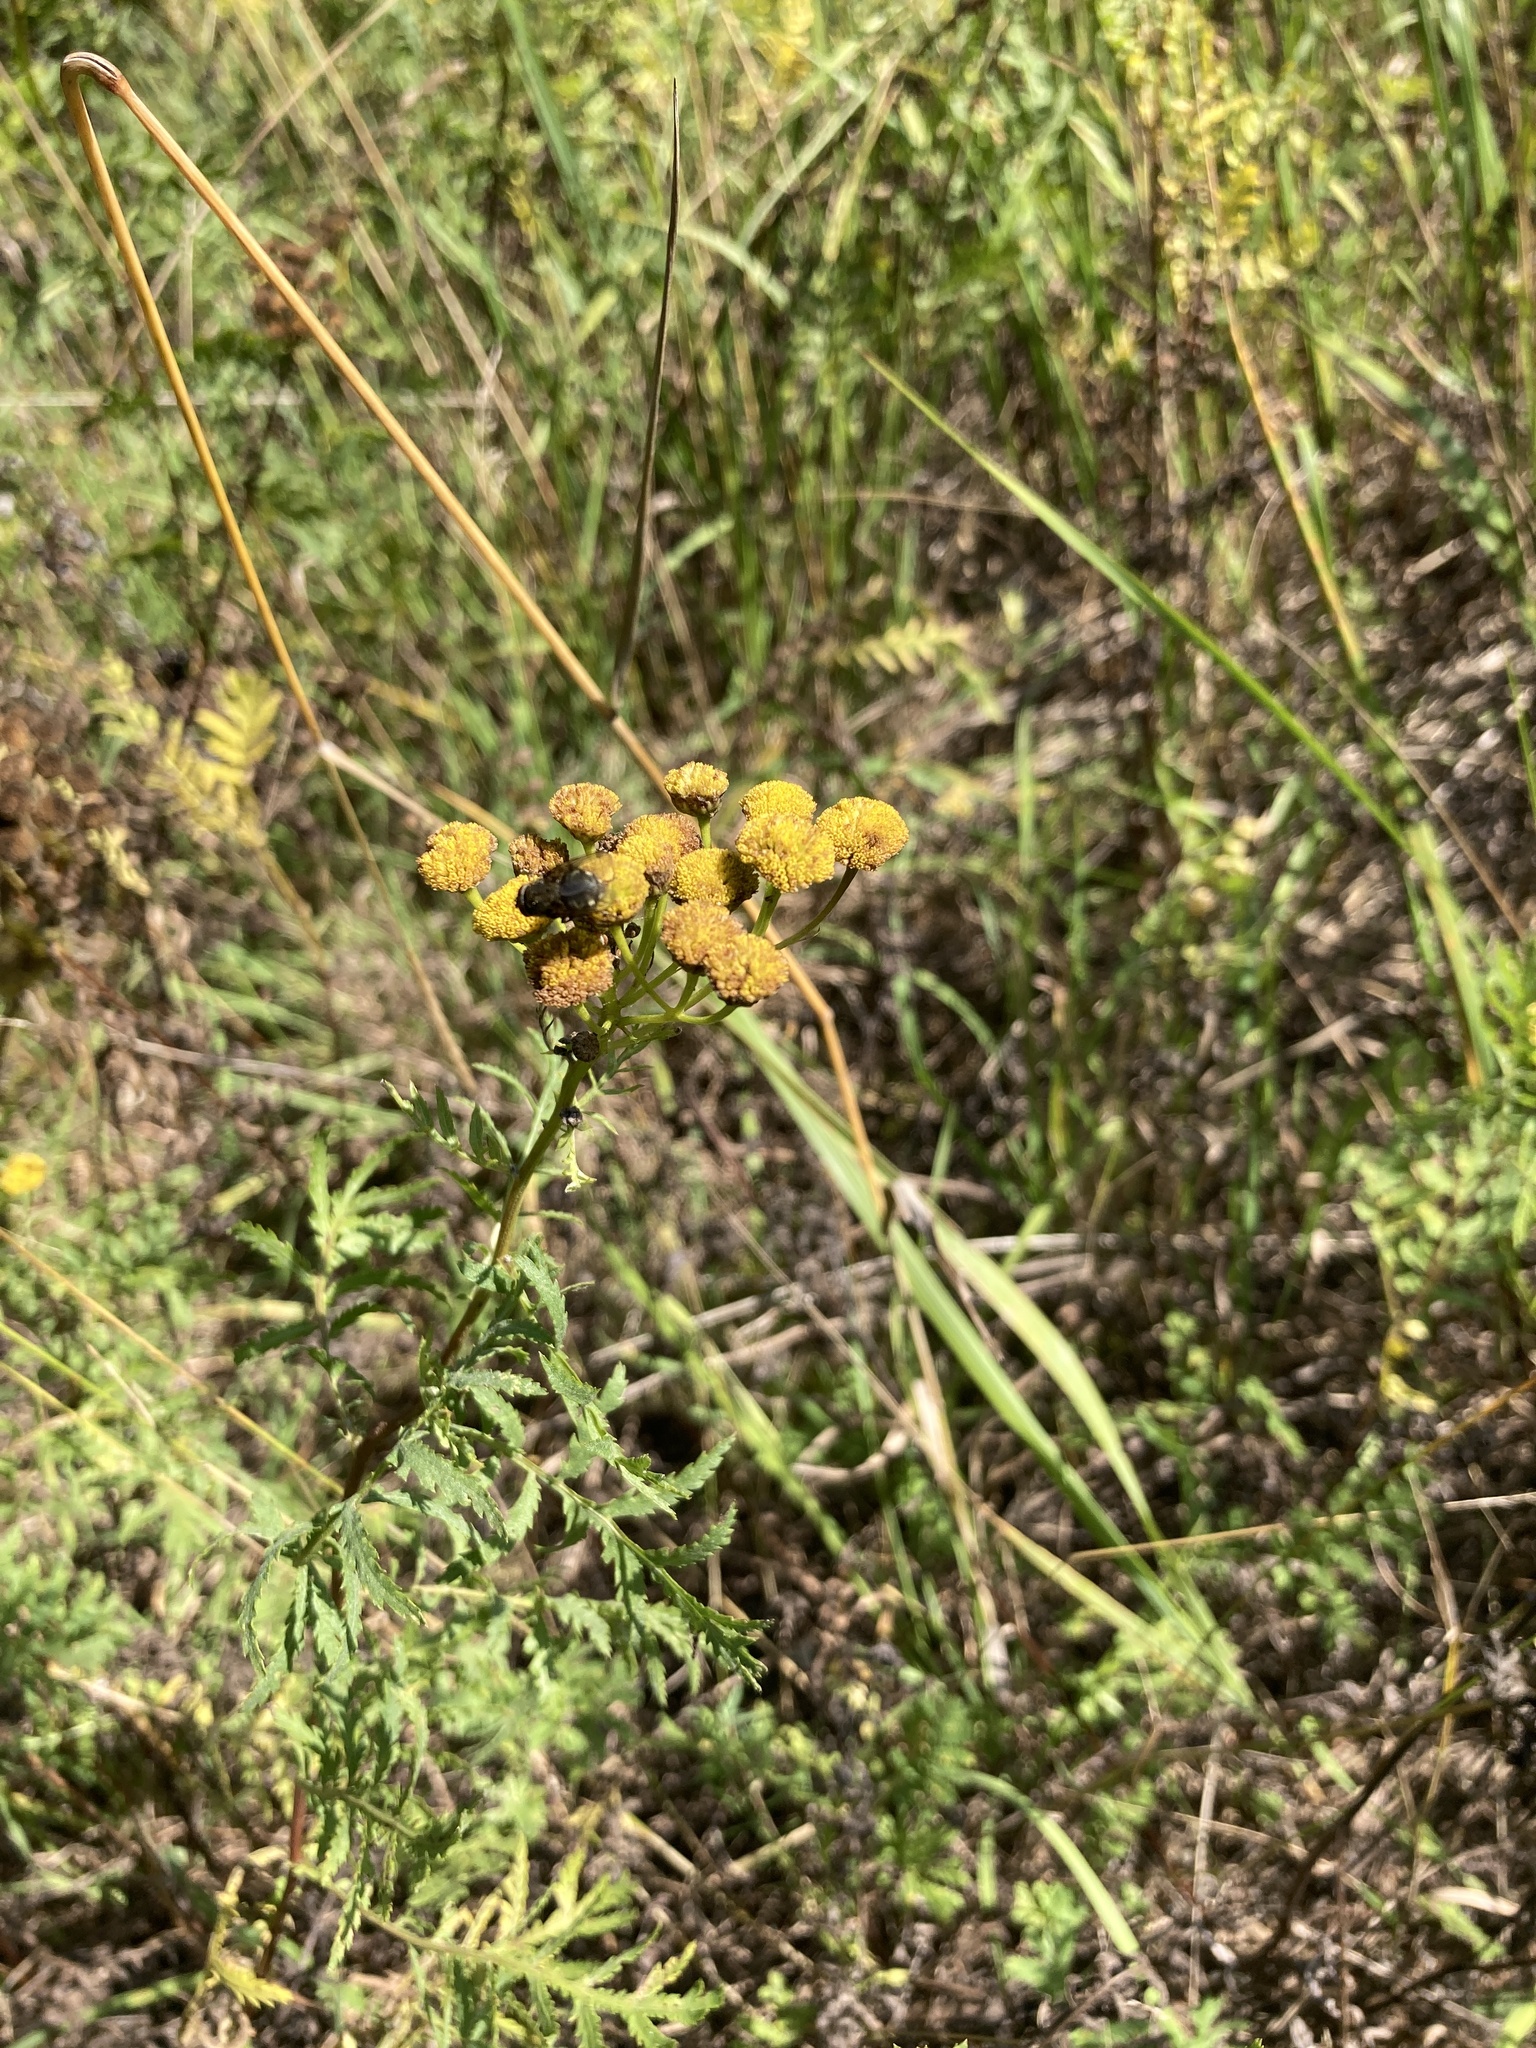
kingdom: Plantae
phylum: Tracheophyta
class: Magnoliopsida
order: Asterales
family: Asteraceae
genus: Tanacetum
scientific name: Tanacetum vulgare
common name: Common tansy
